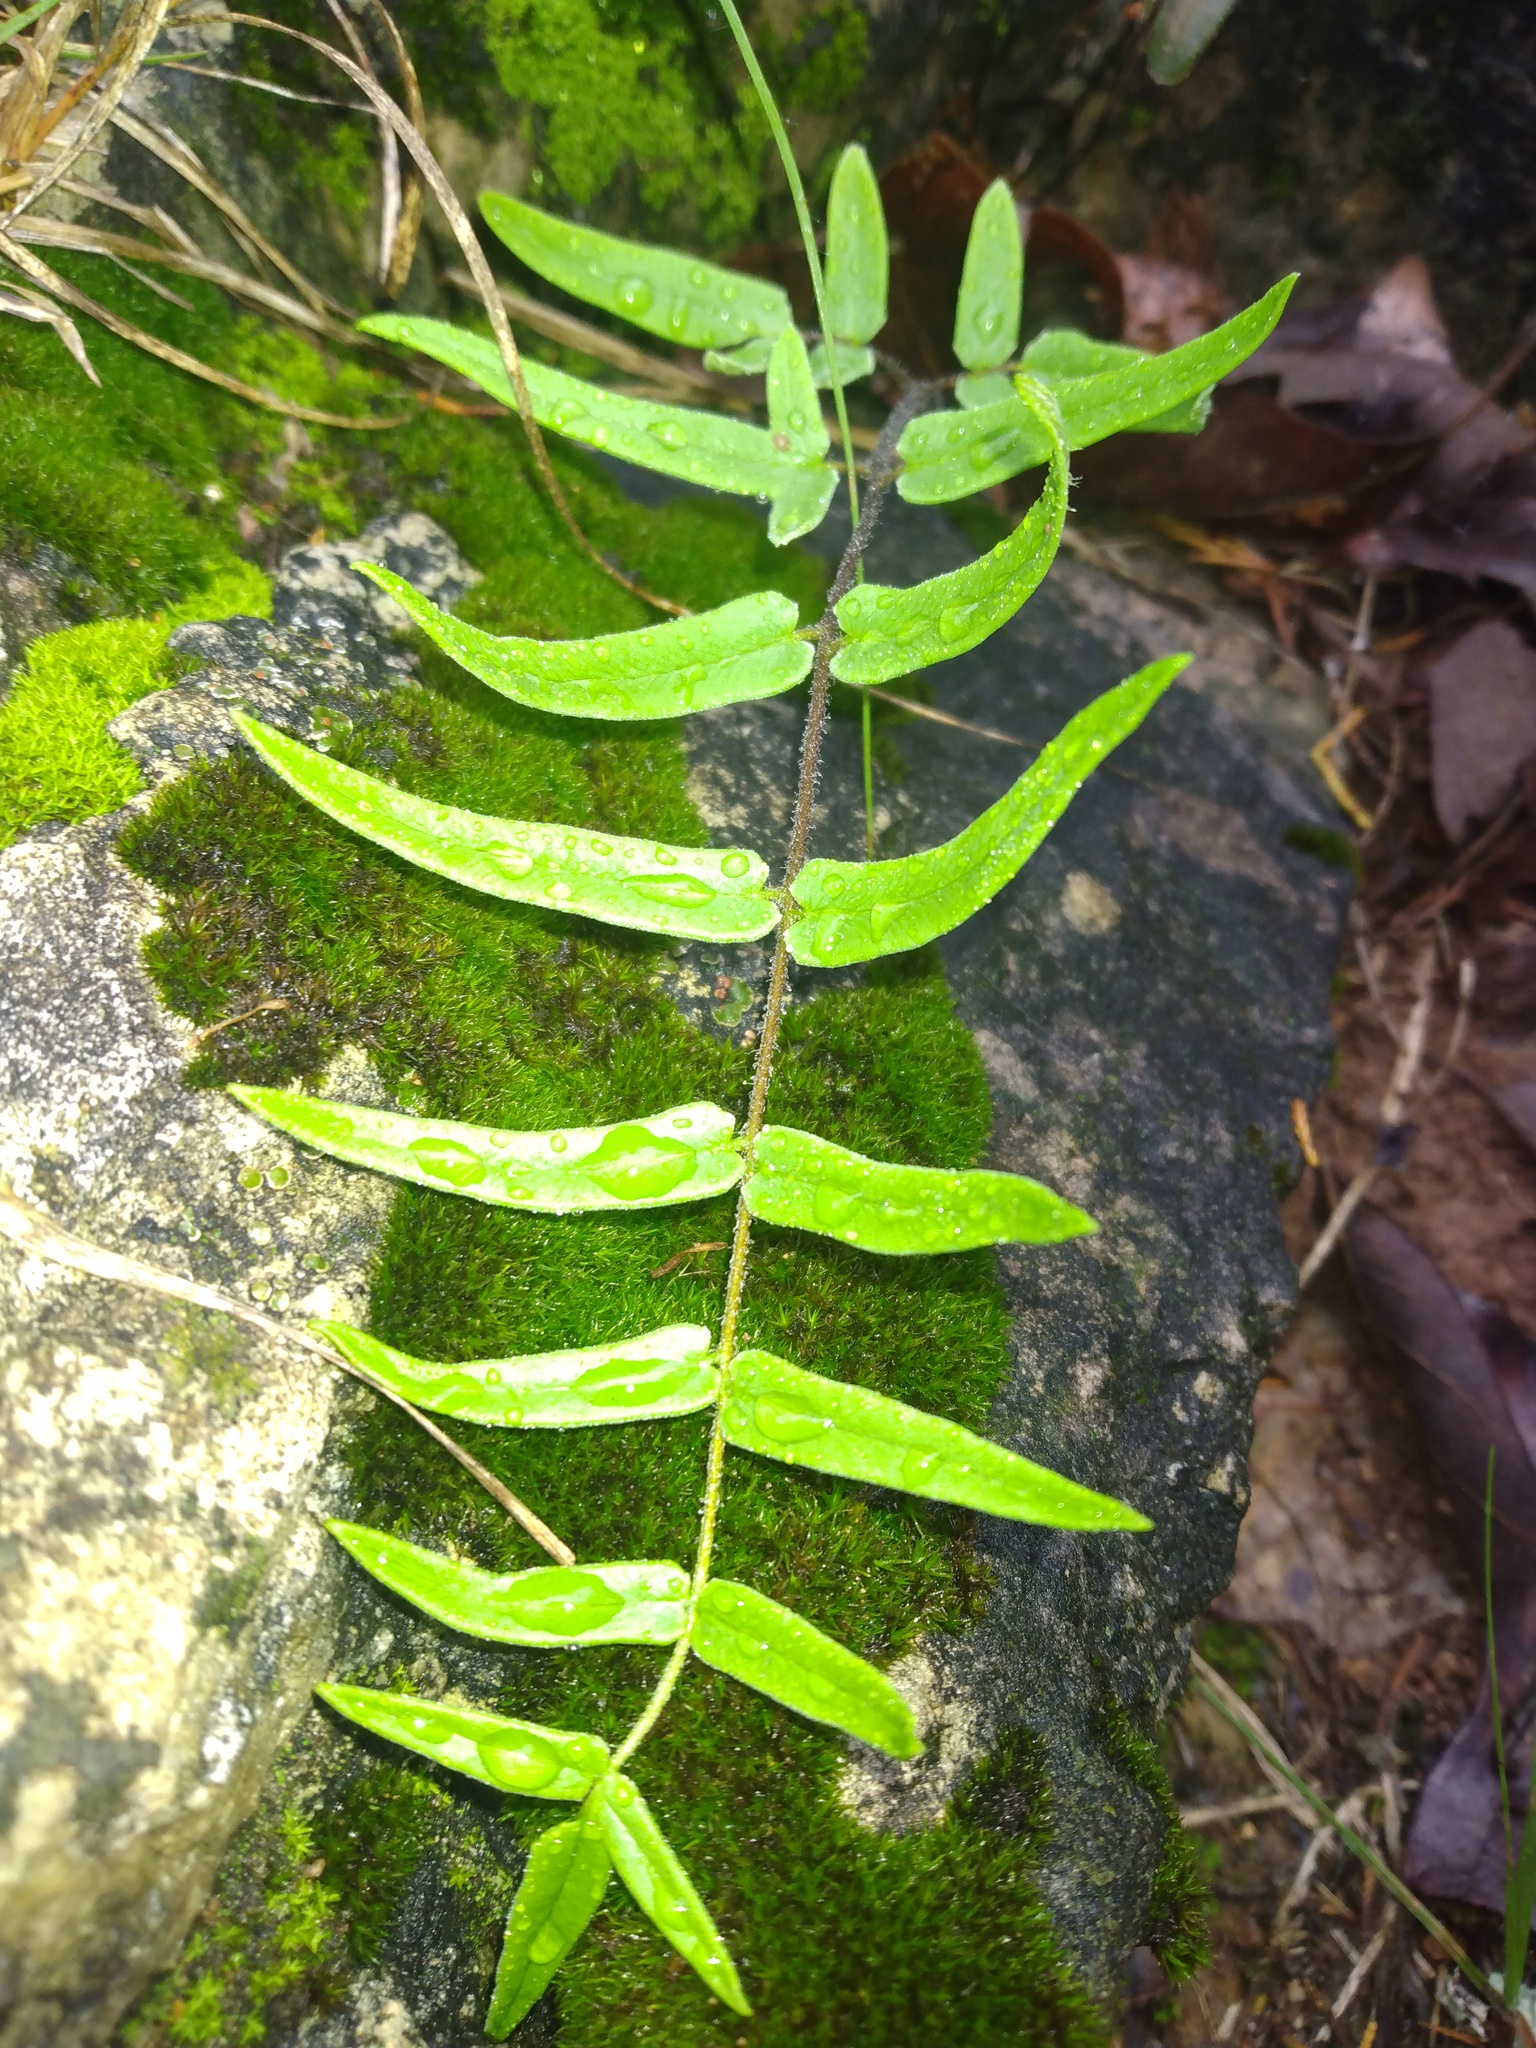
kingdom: Plantae
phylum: Tracheophyta
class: Polypodiopsida
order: Polypodiales
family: Pteridaceae
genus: Pellaea
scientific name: Pellaea atropurpurea
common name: Hairy cliffbrake
